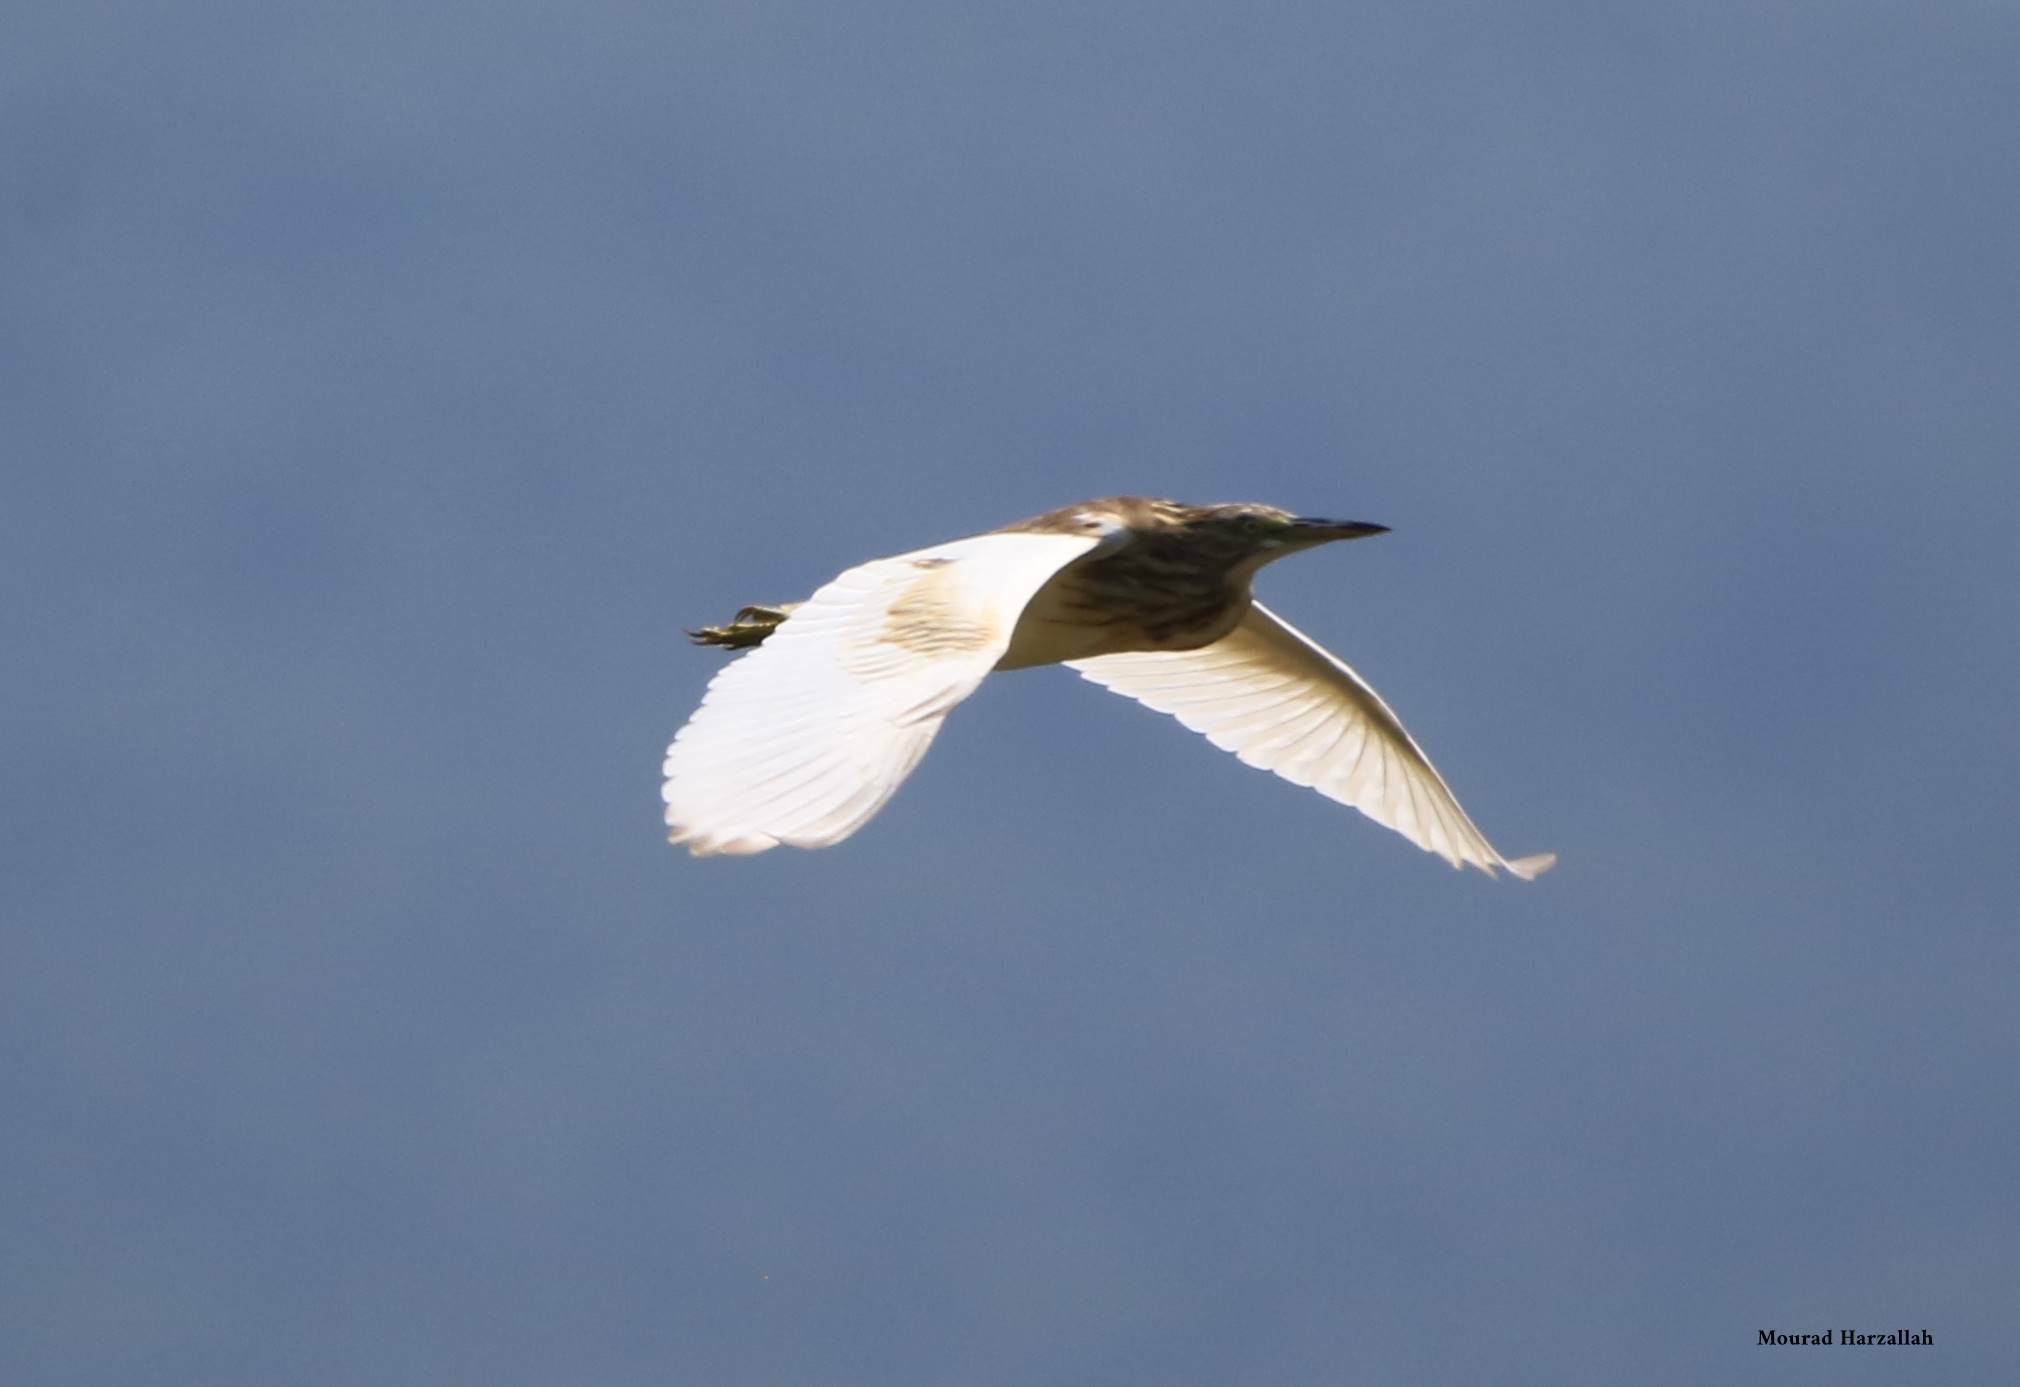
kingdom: Animalia
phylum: Chordata
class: Aves
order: Pelecaniformes
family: Ardeidae
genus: Ardeola
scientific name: Ardeola ralloides
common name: Squacco heron
